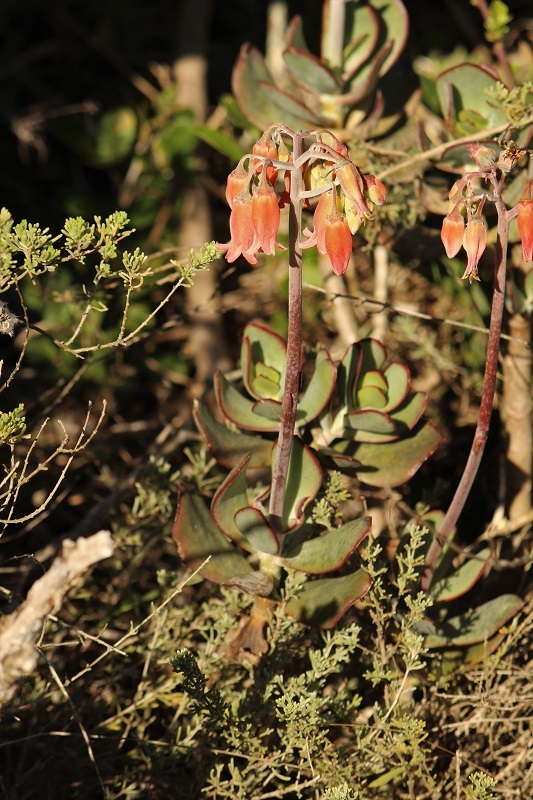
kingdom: Plantae
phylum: Tracheophyta
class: Magnoliopsida
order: Saxifragales
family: Crassulaceae
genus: Cotyledon
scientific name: Cotyledon orbiculata
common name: Pig's ear
